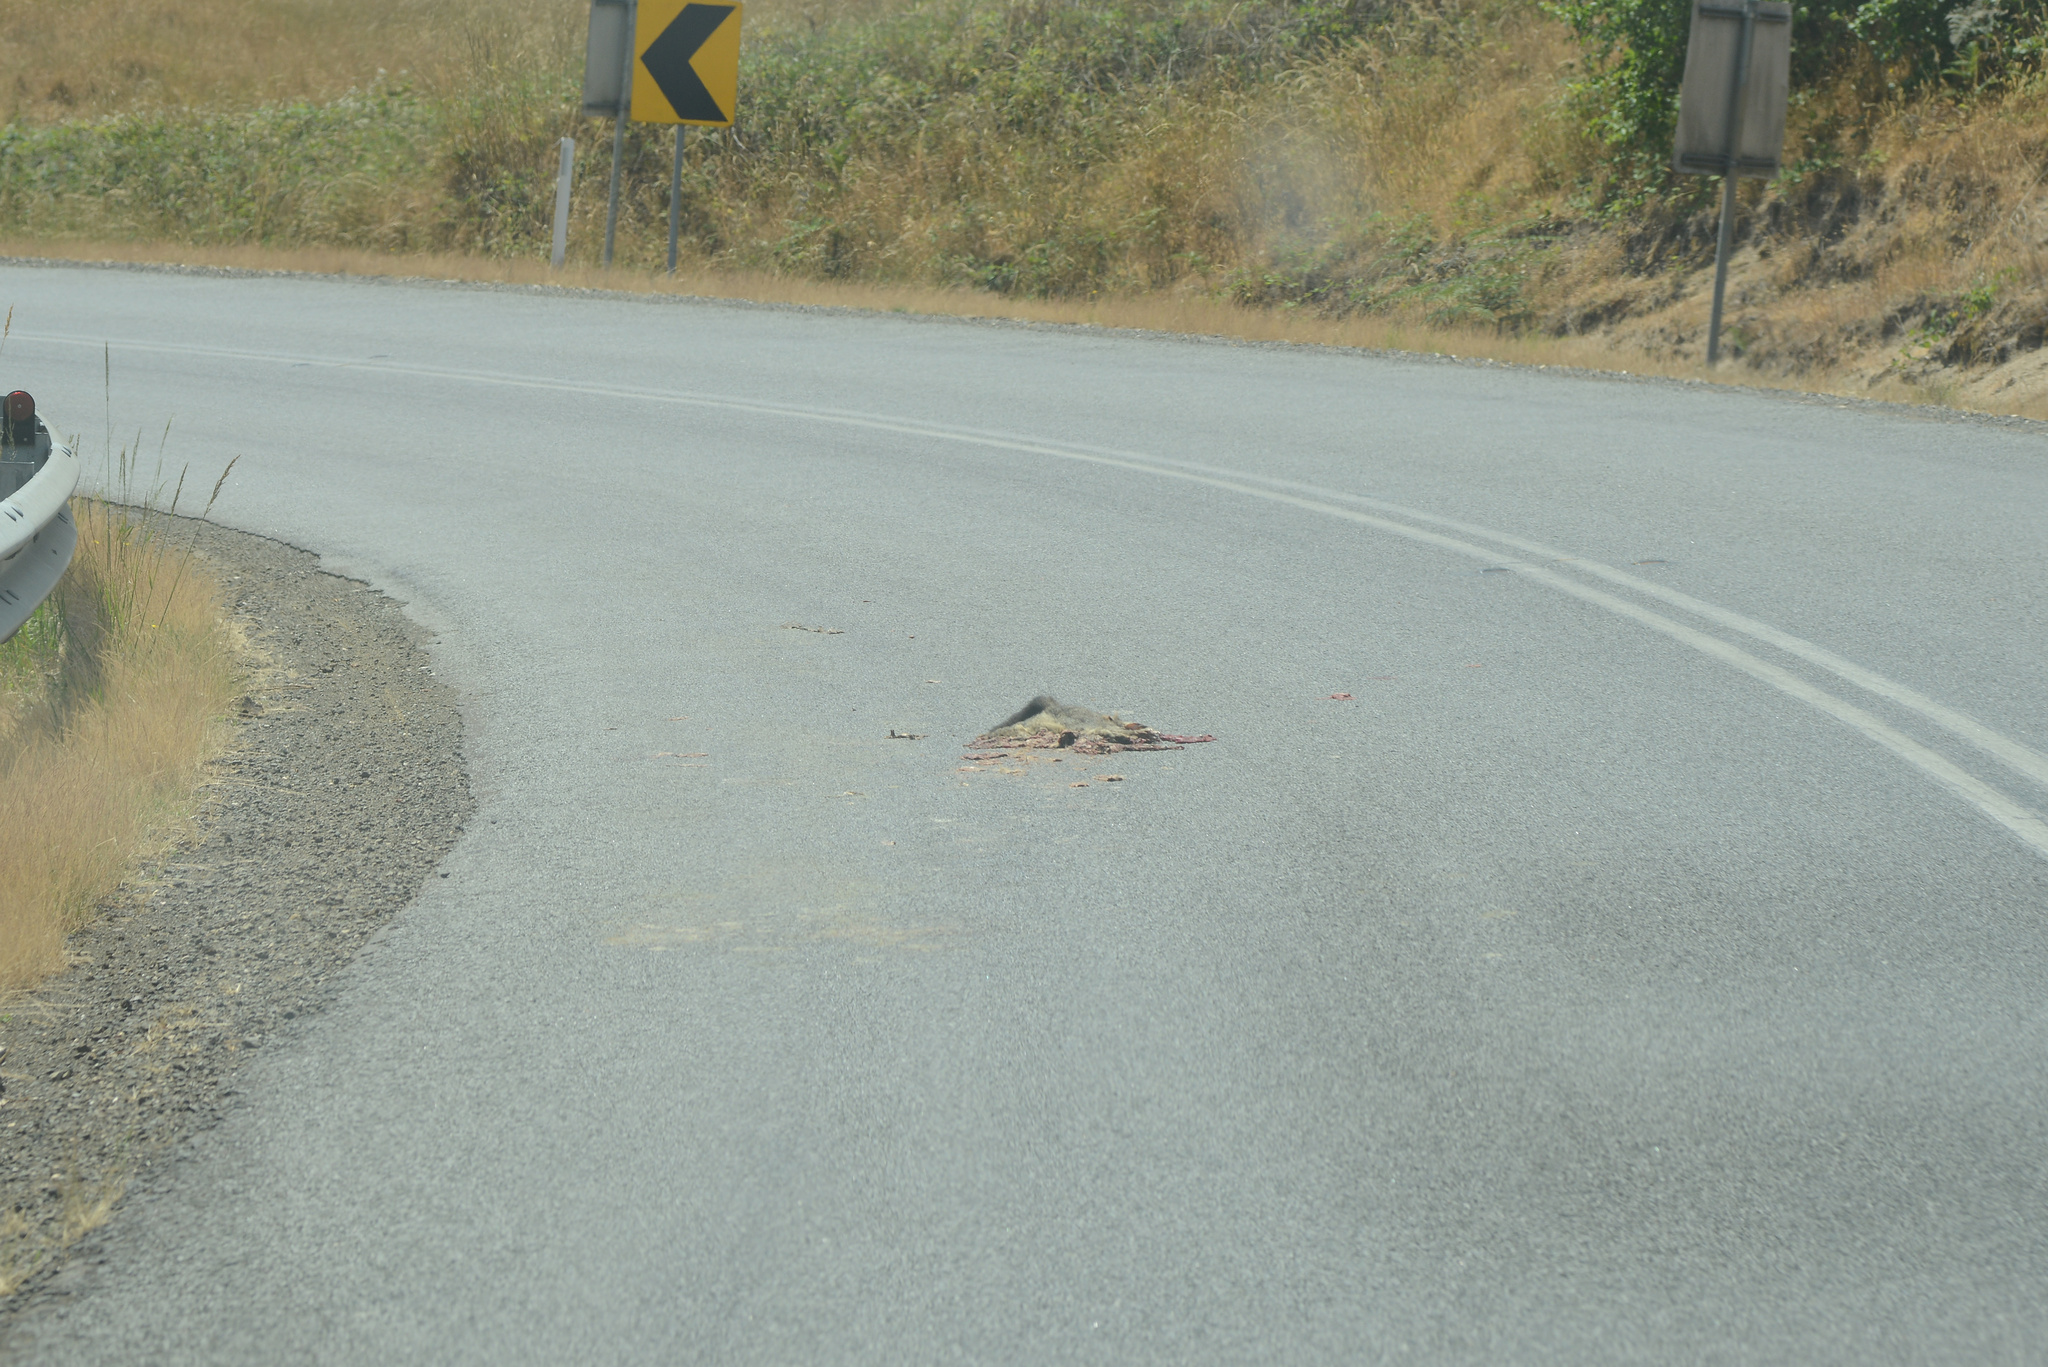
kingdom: Animalia
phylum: Chordata
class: Mammalia
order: Diprotodontia
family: Phalangeridae
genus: Trichosurus
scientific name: Trichosurus vulpecula
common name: Common brushtail
